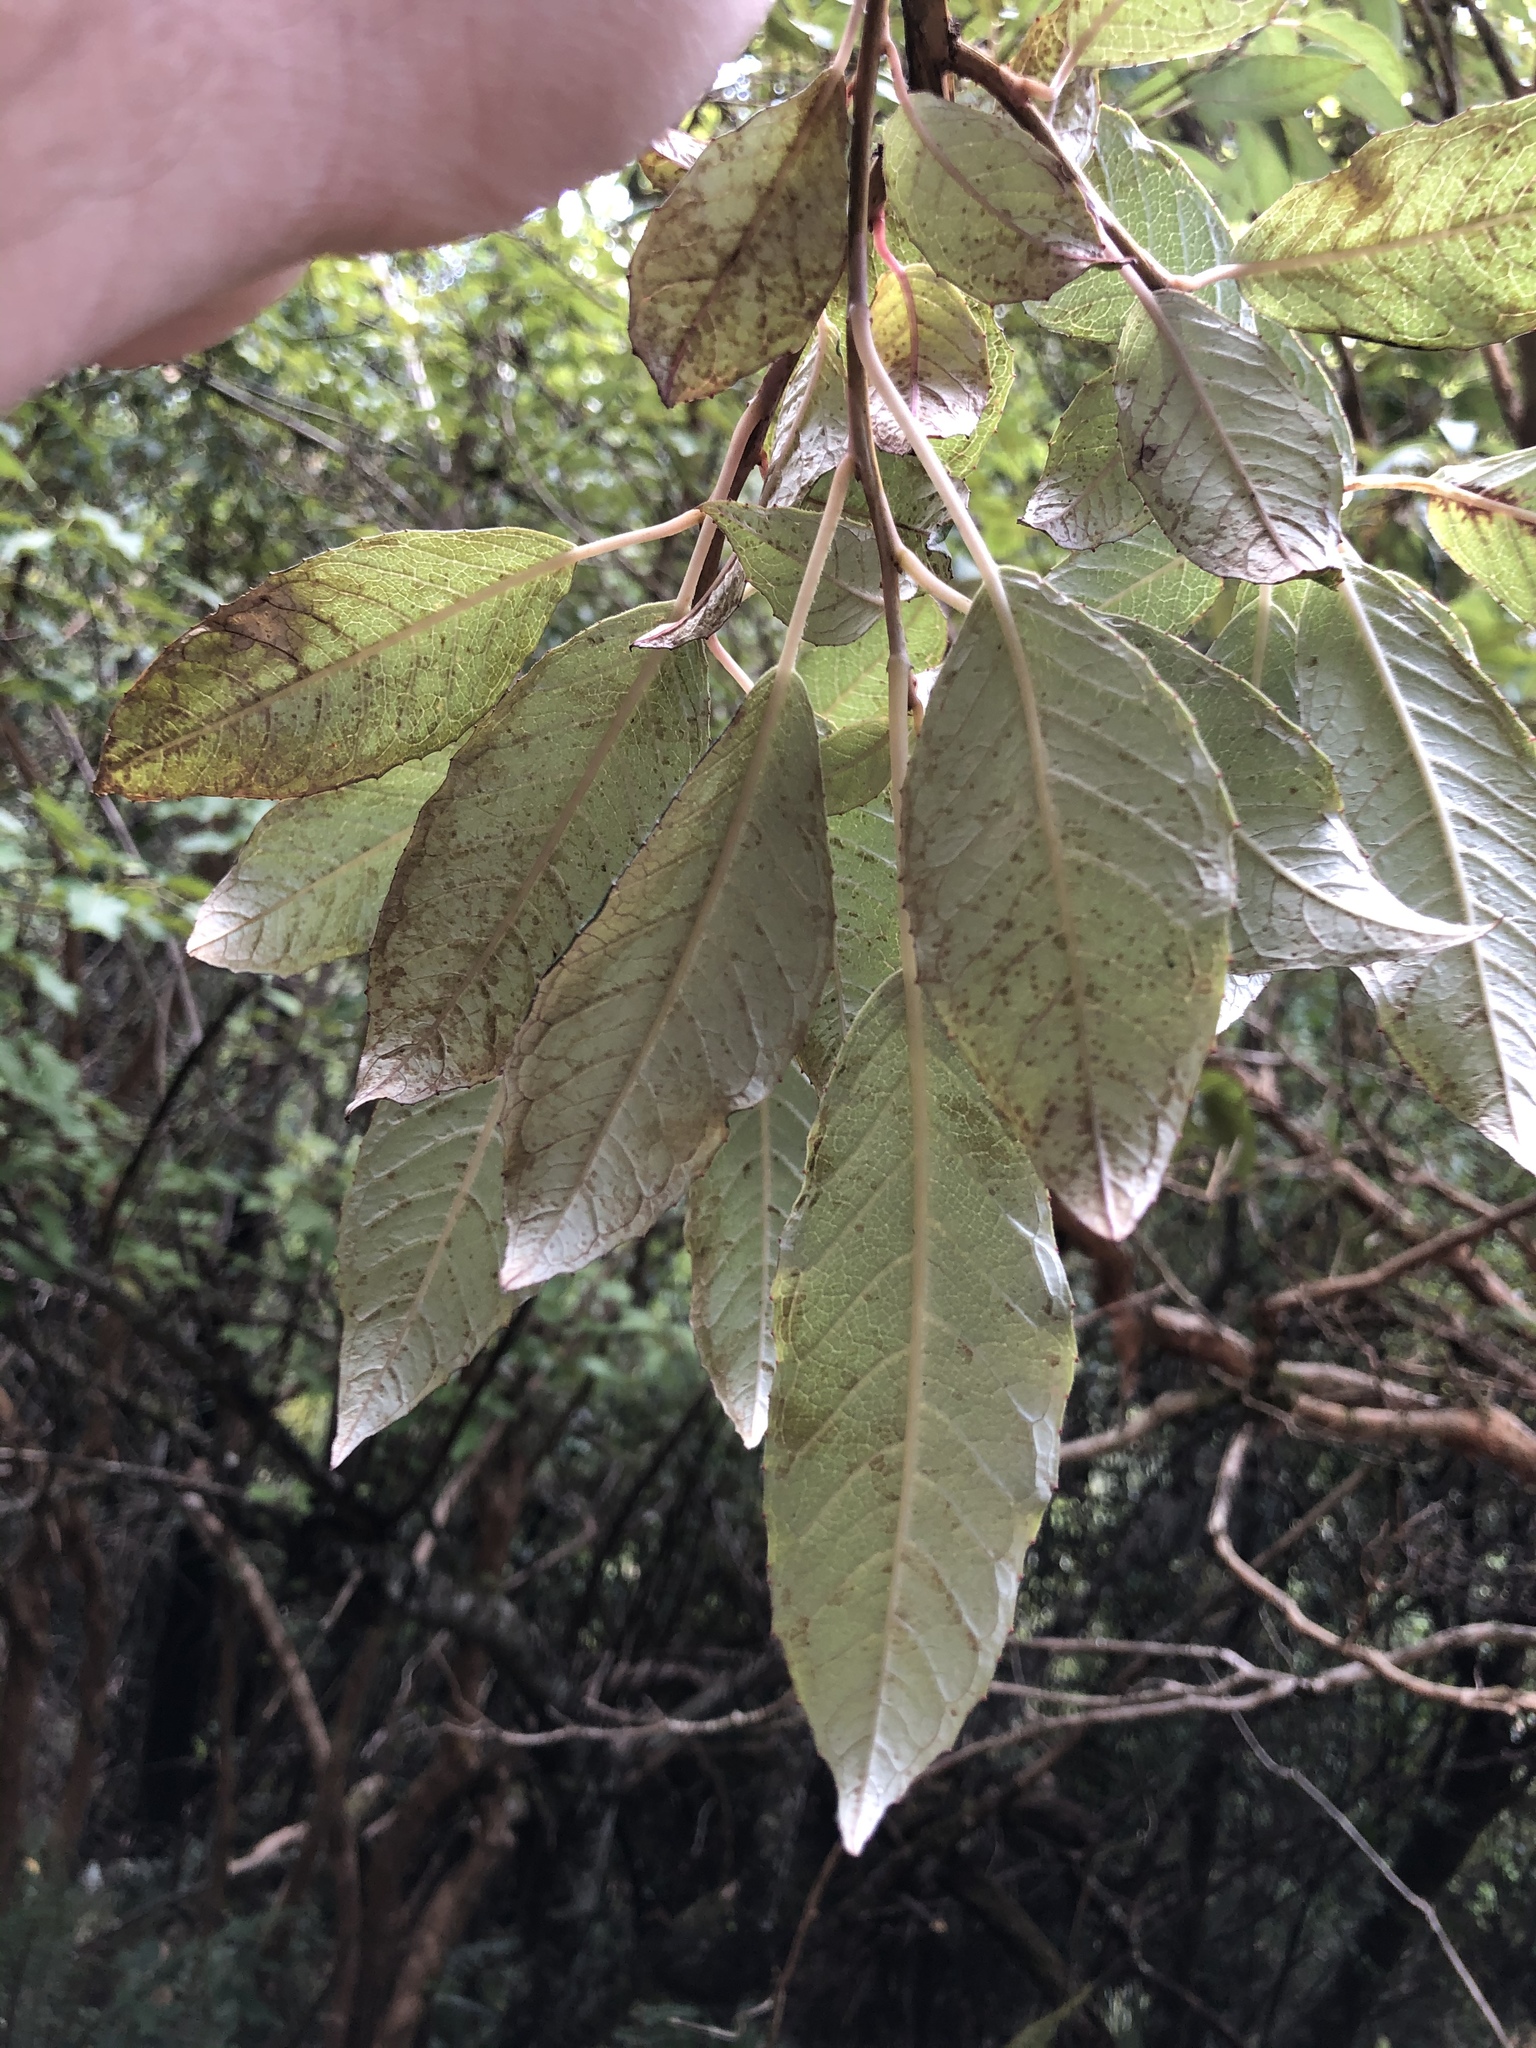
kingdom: Plantae
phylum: Tracheophyta
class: Magnoliopsida
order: Myrtales
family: Onagraceae
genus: Fuchsia
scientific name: Fuchsia excorticata
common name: Tree fuchsia
